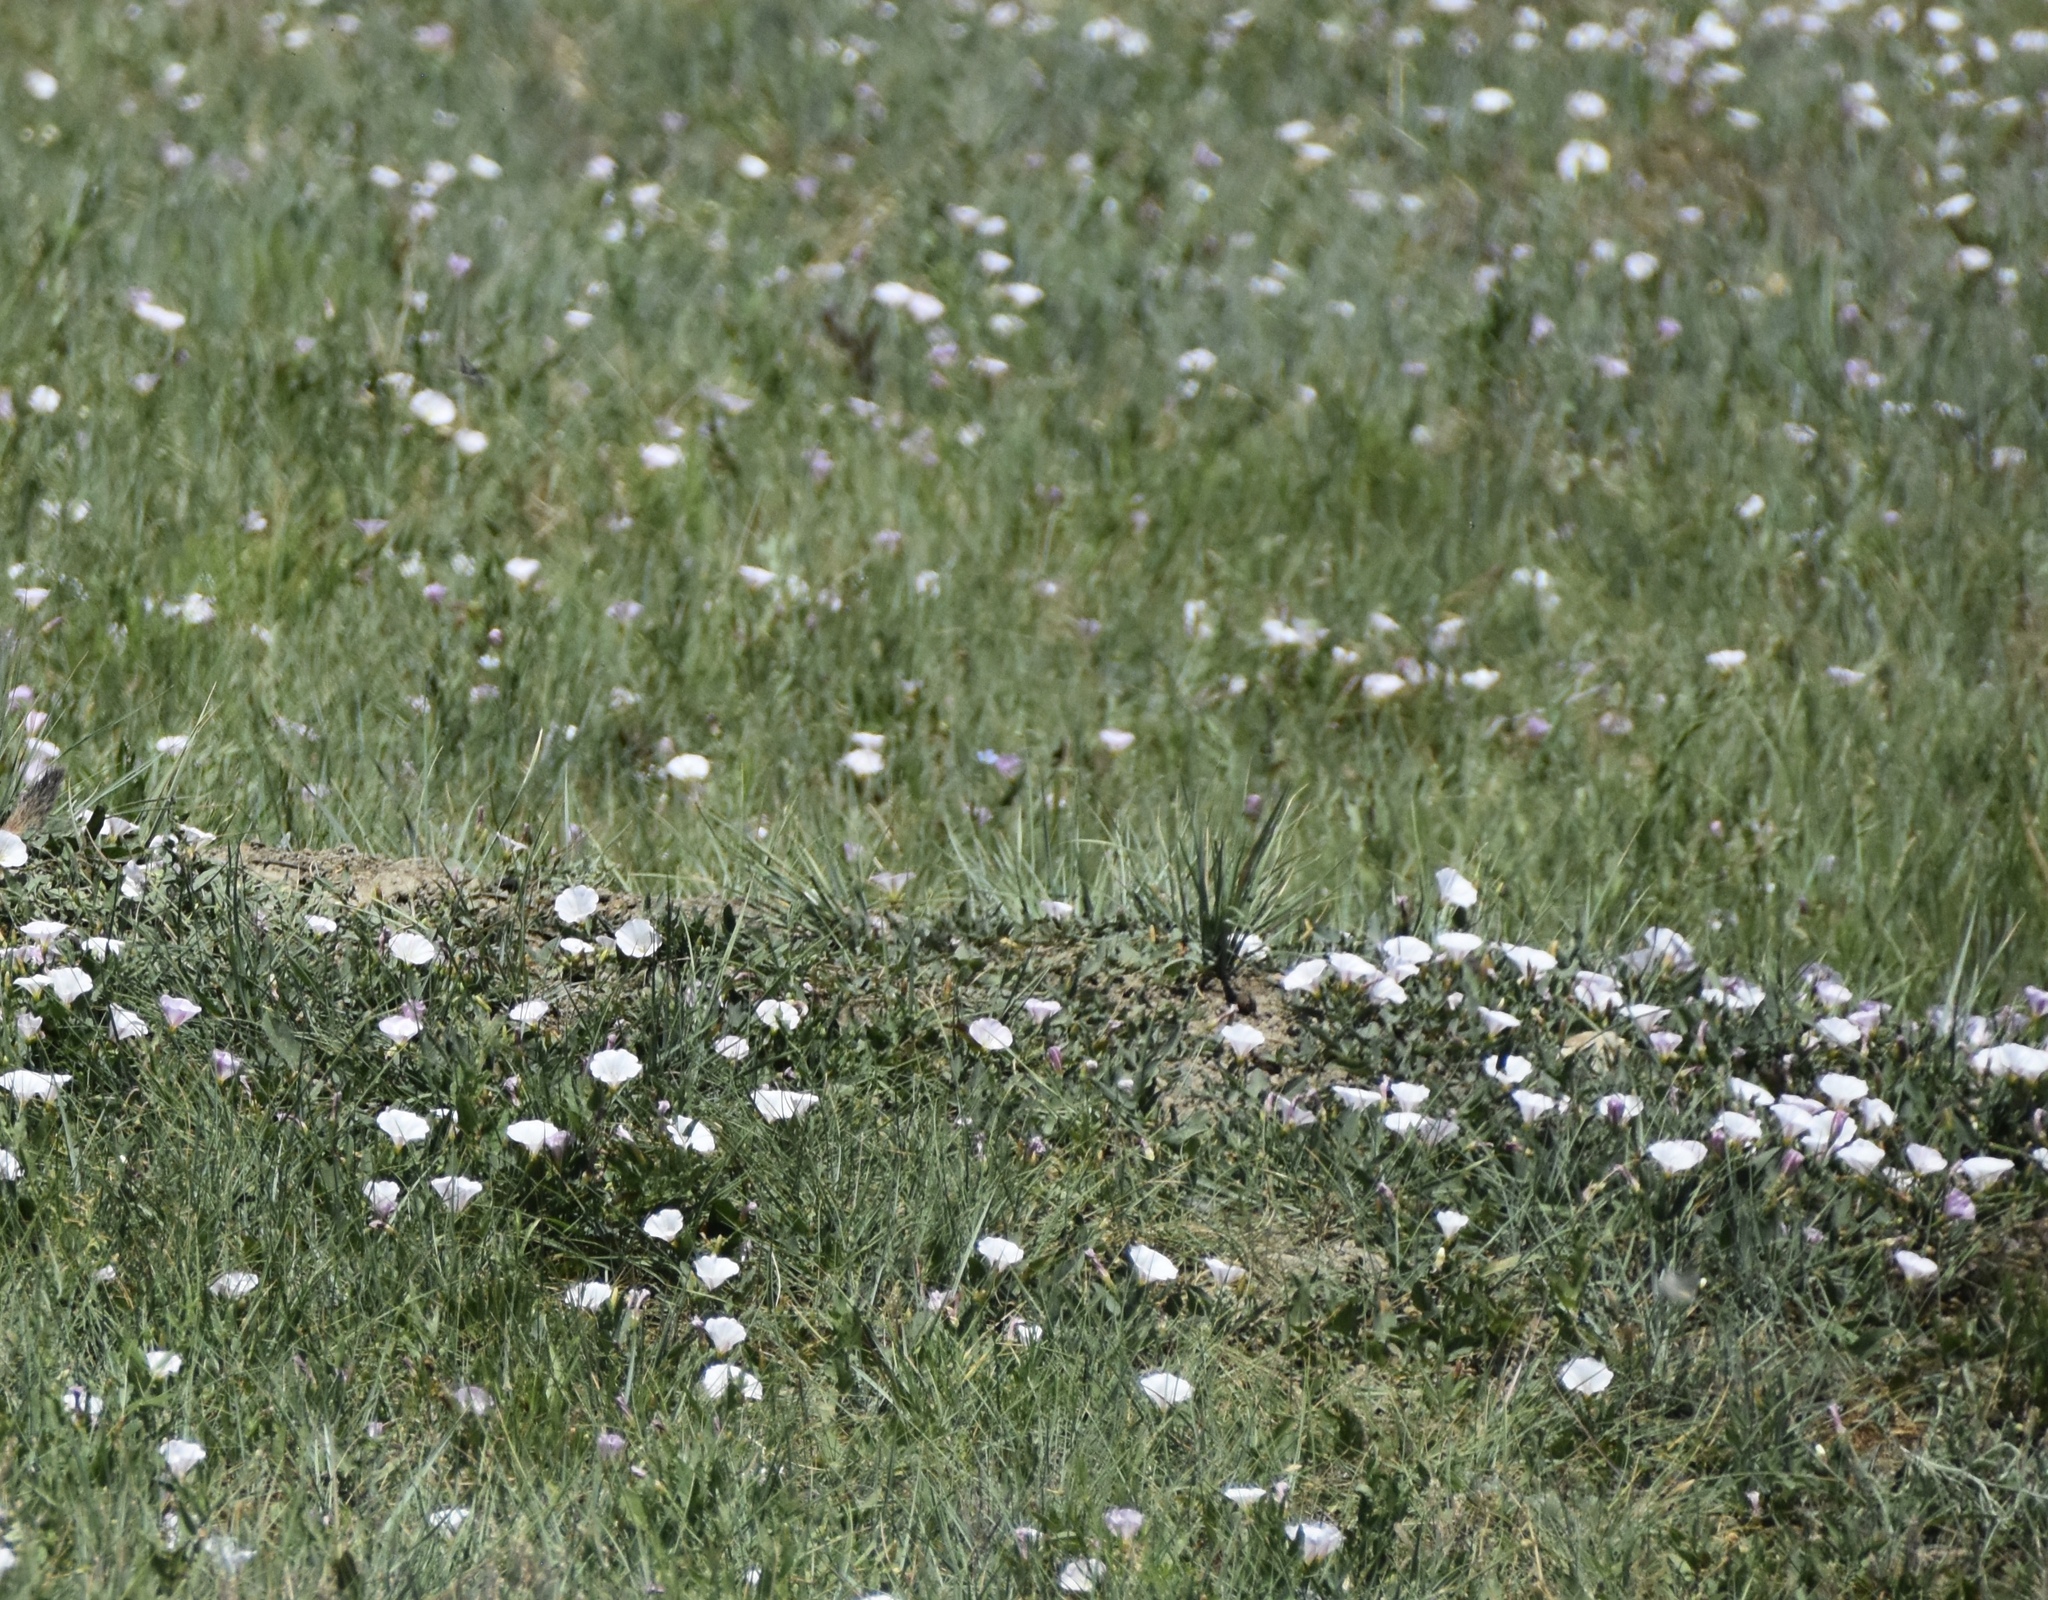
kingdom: Plantae
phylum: Tracheophyta
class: Magnoliopsida
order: Solanales
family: Convolvulaceae
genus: Convolvulus
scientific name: Convolvulus arvensis
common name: Field bindweed
